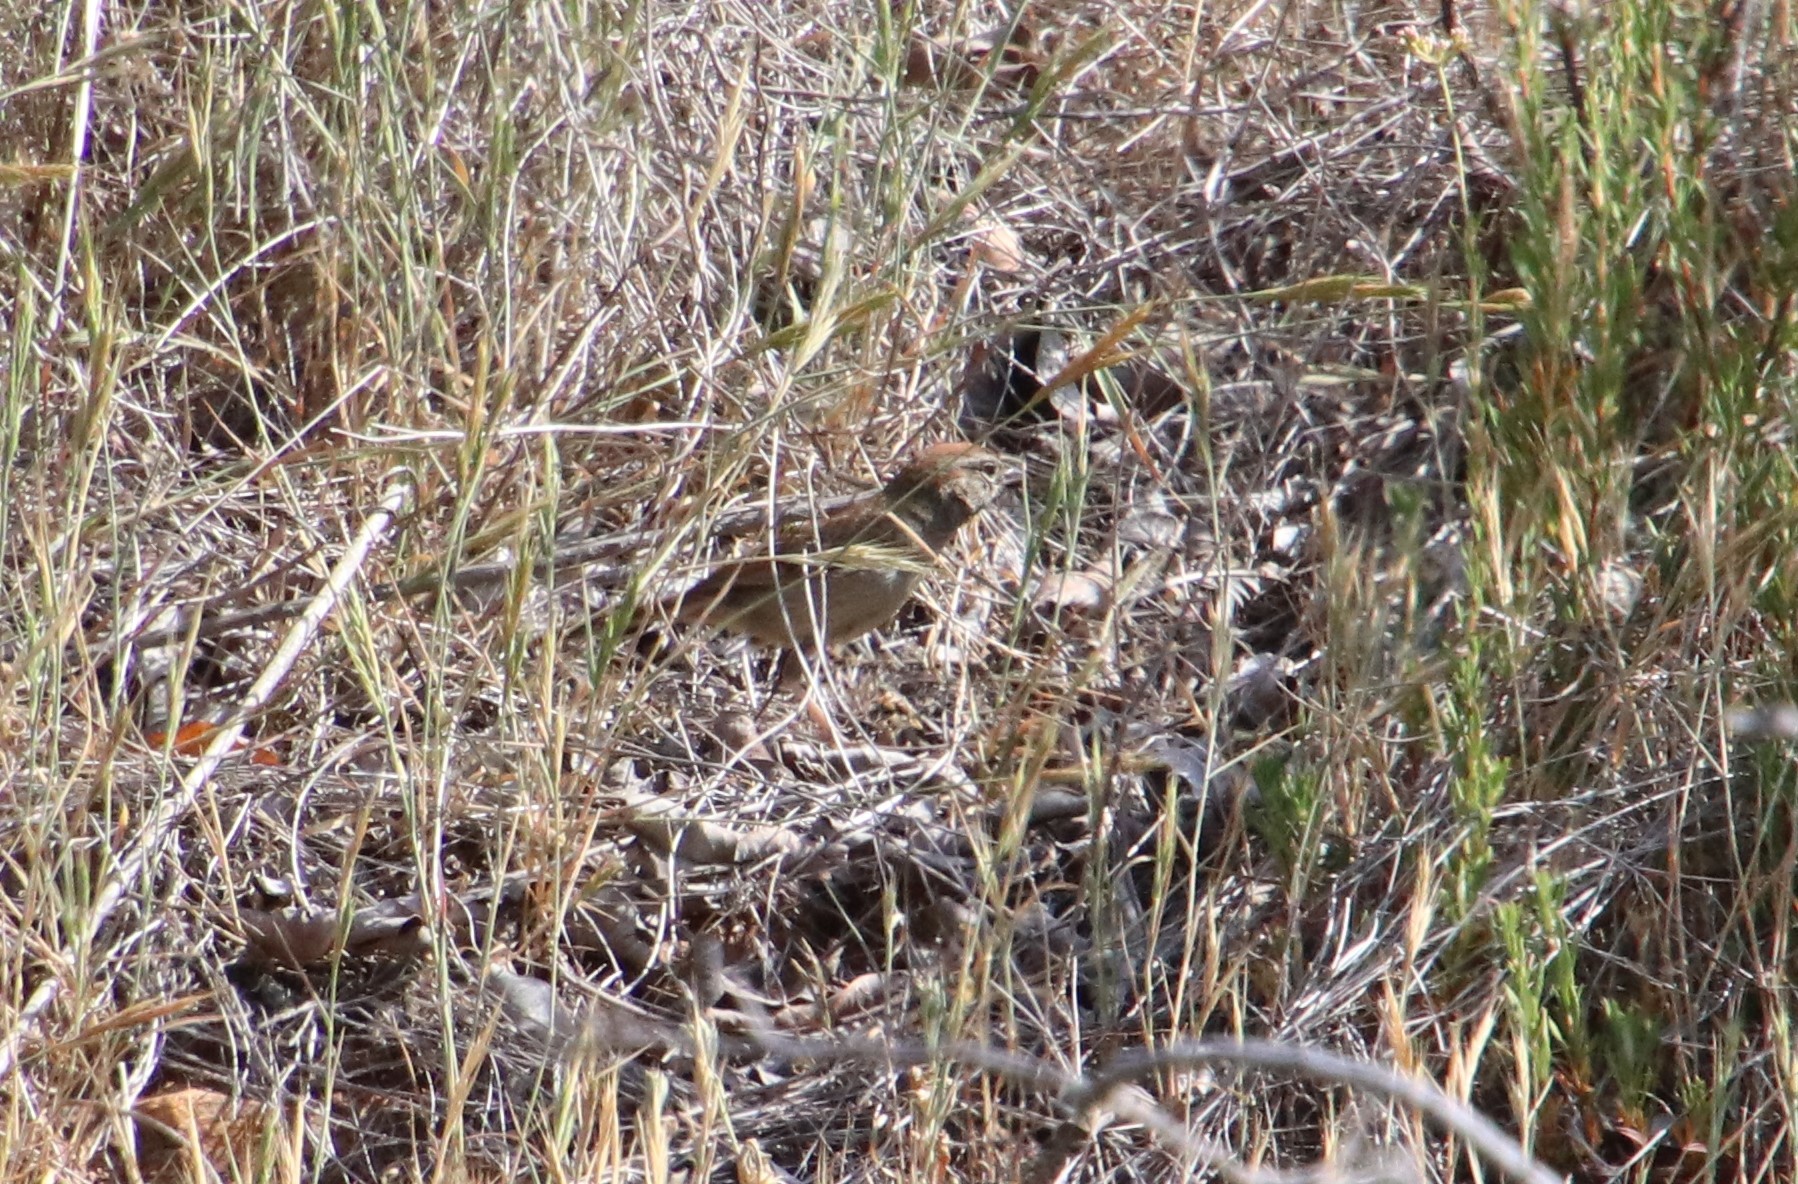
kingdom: Animalia
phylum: Chordata
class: Aves
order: Passeriformes
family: Passerellidae
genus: Aimophila
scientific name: Aimophila ruficeps
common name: Rufous-crowned sparrow
